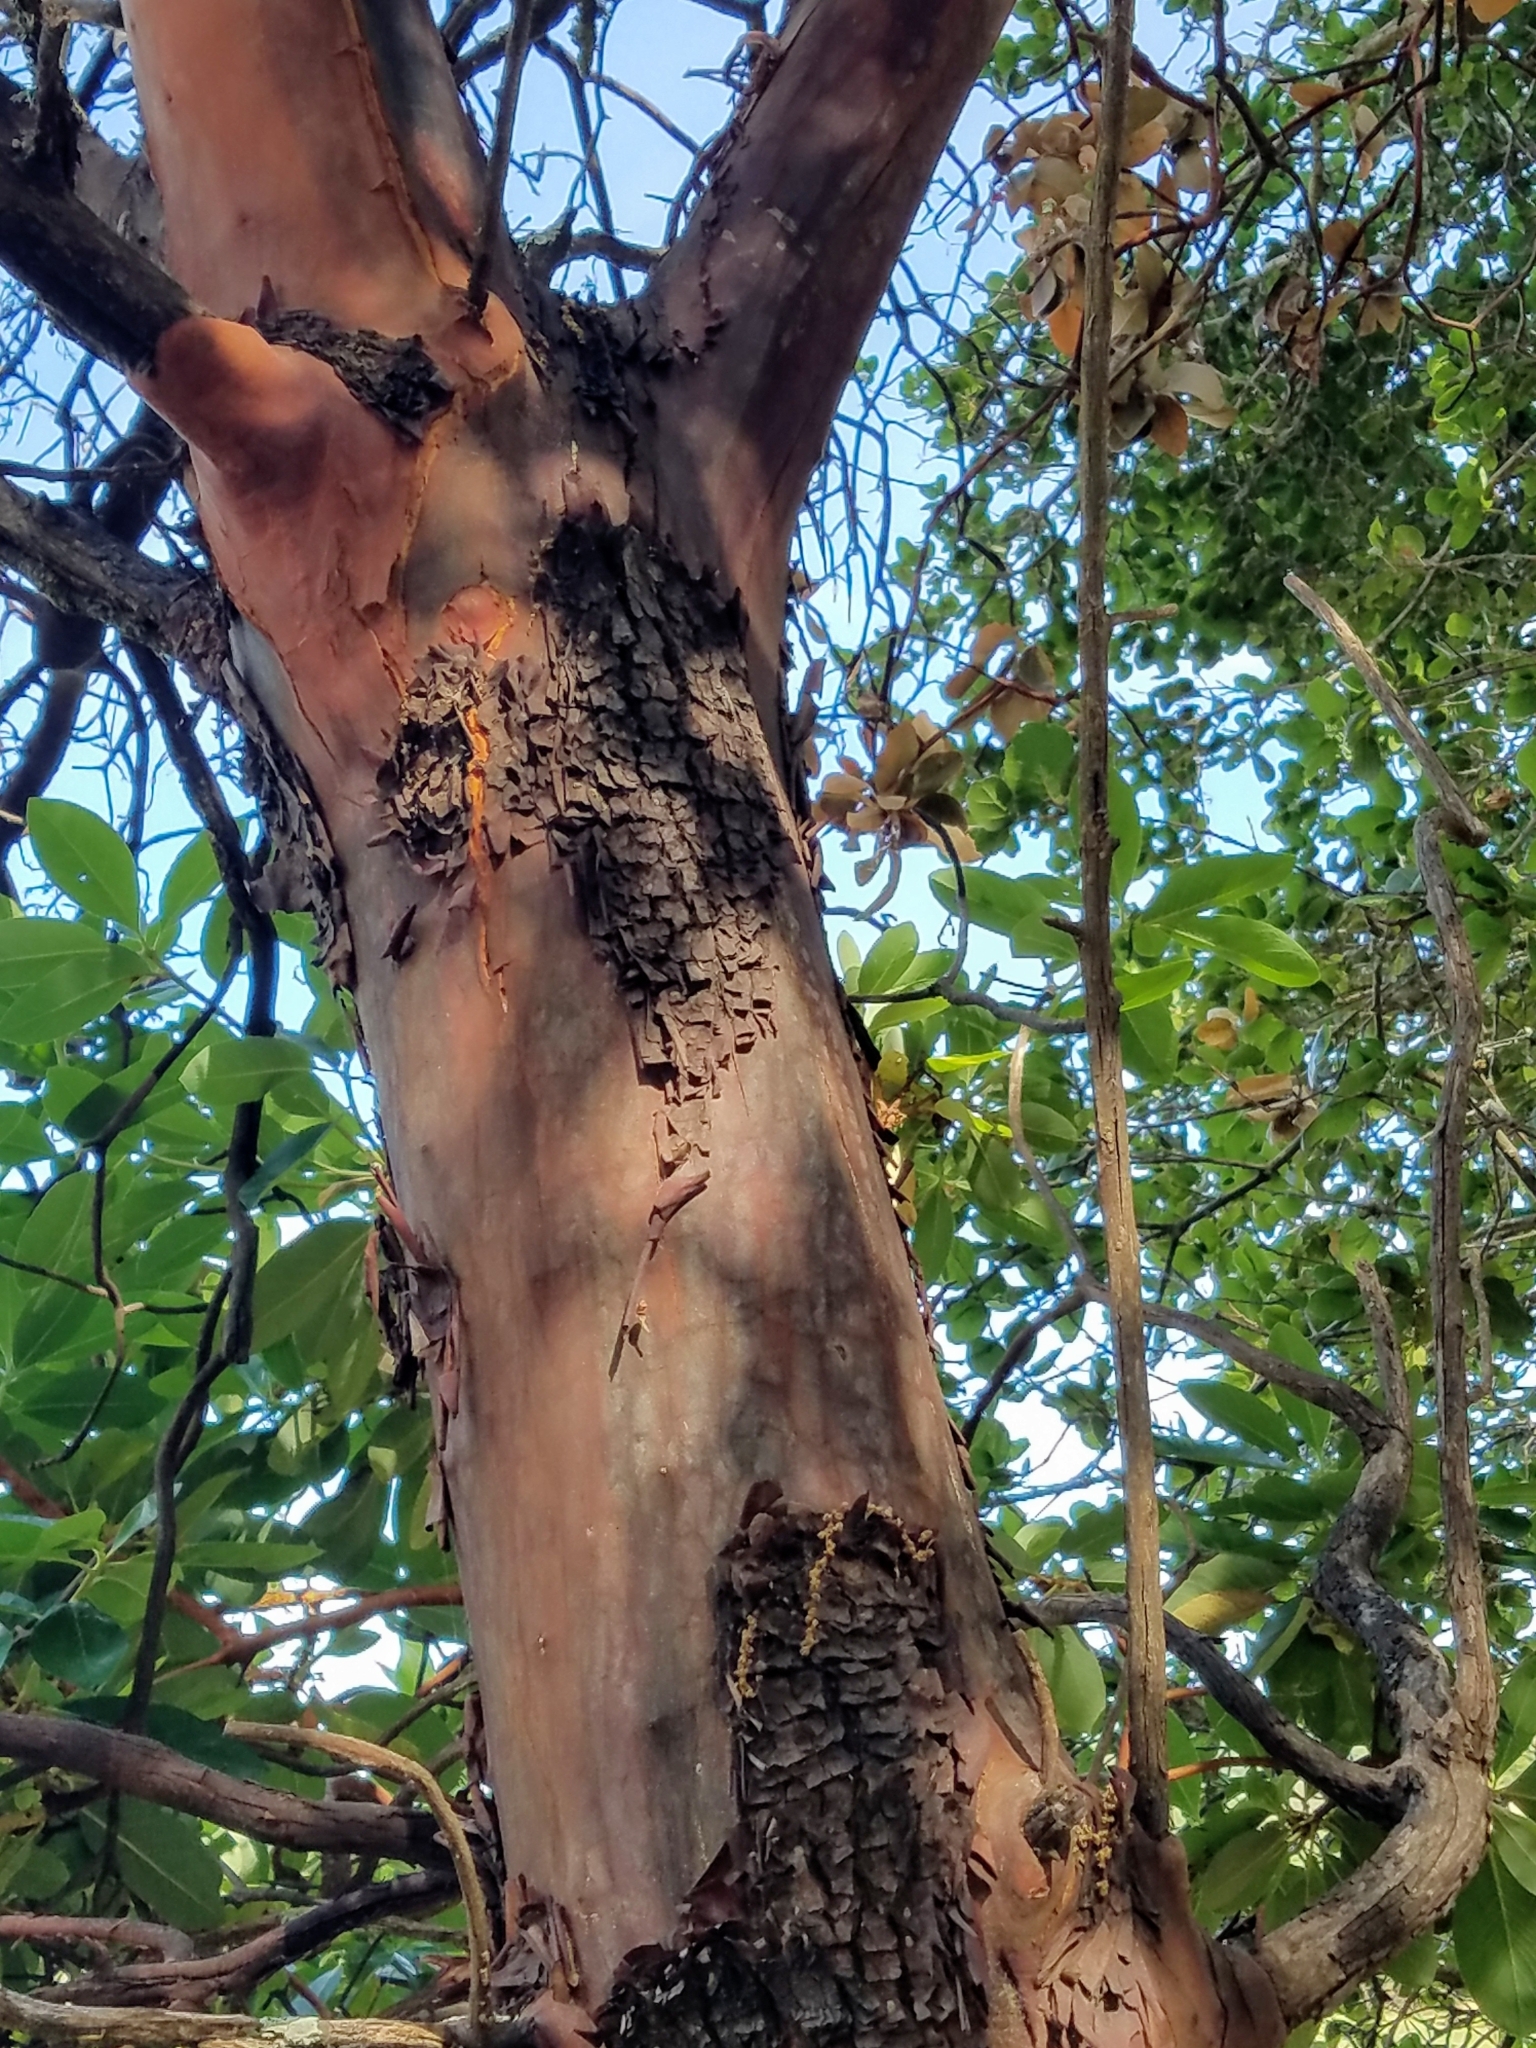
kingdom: Plantae
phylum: Tracheophyta
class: Magnoliopsida
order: Ericales
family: Ericaceae
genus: Arbutus
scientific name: Arbutus menziesii
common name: Pacific madrone
